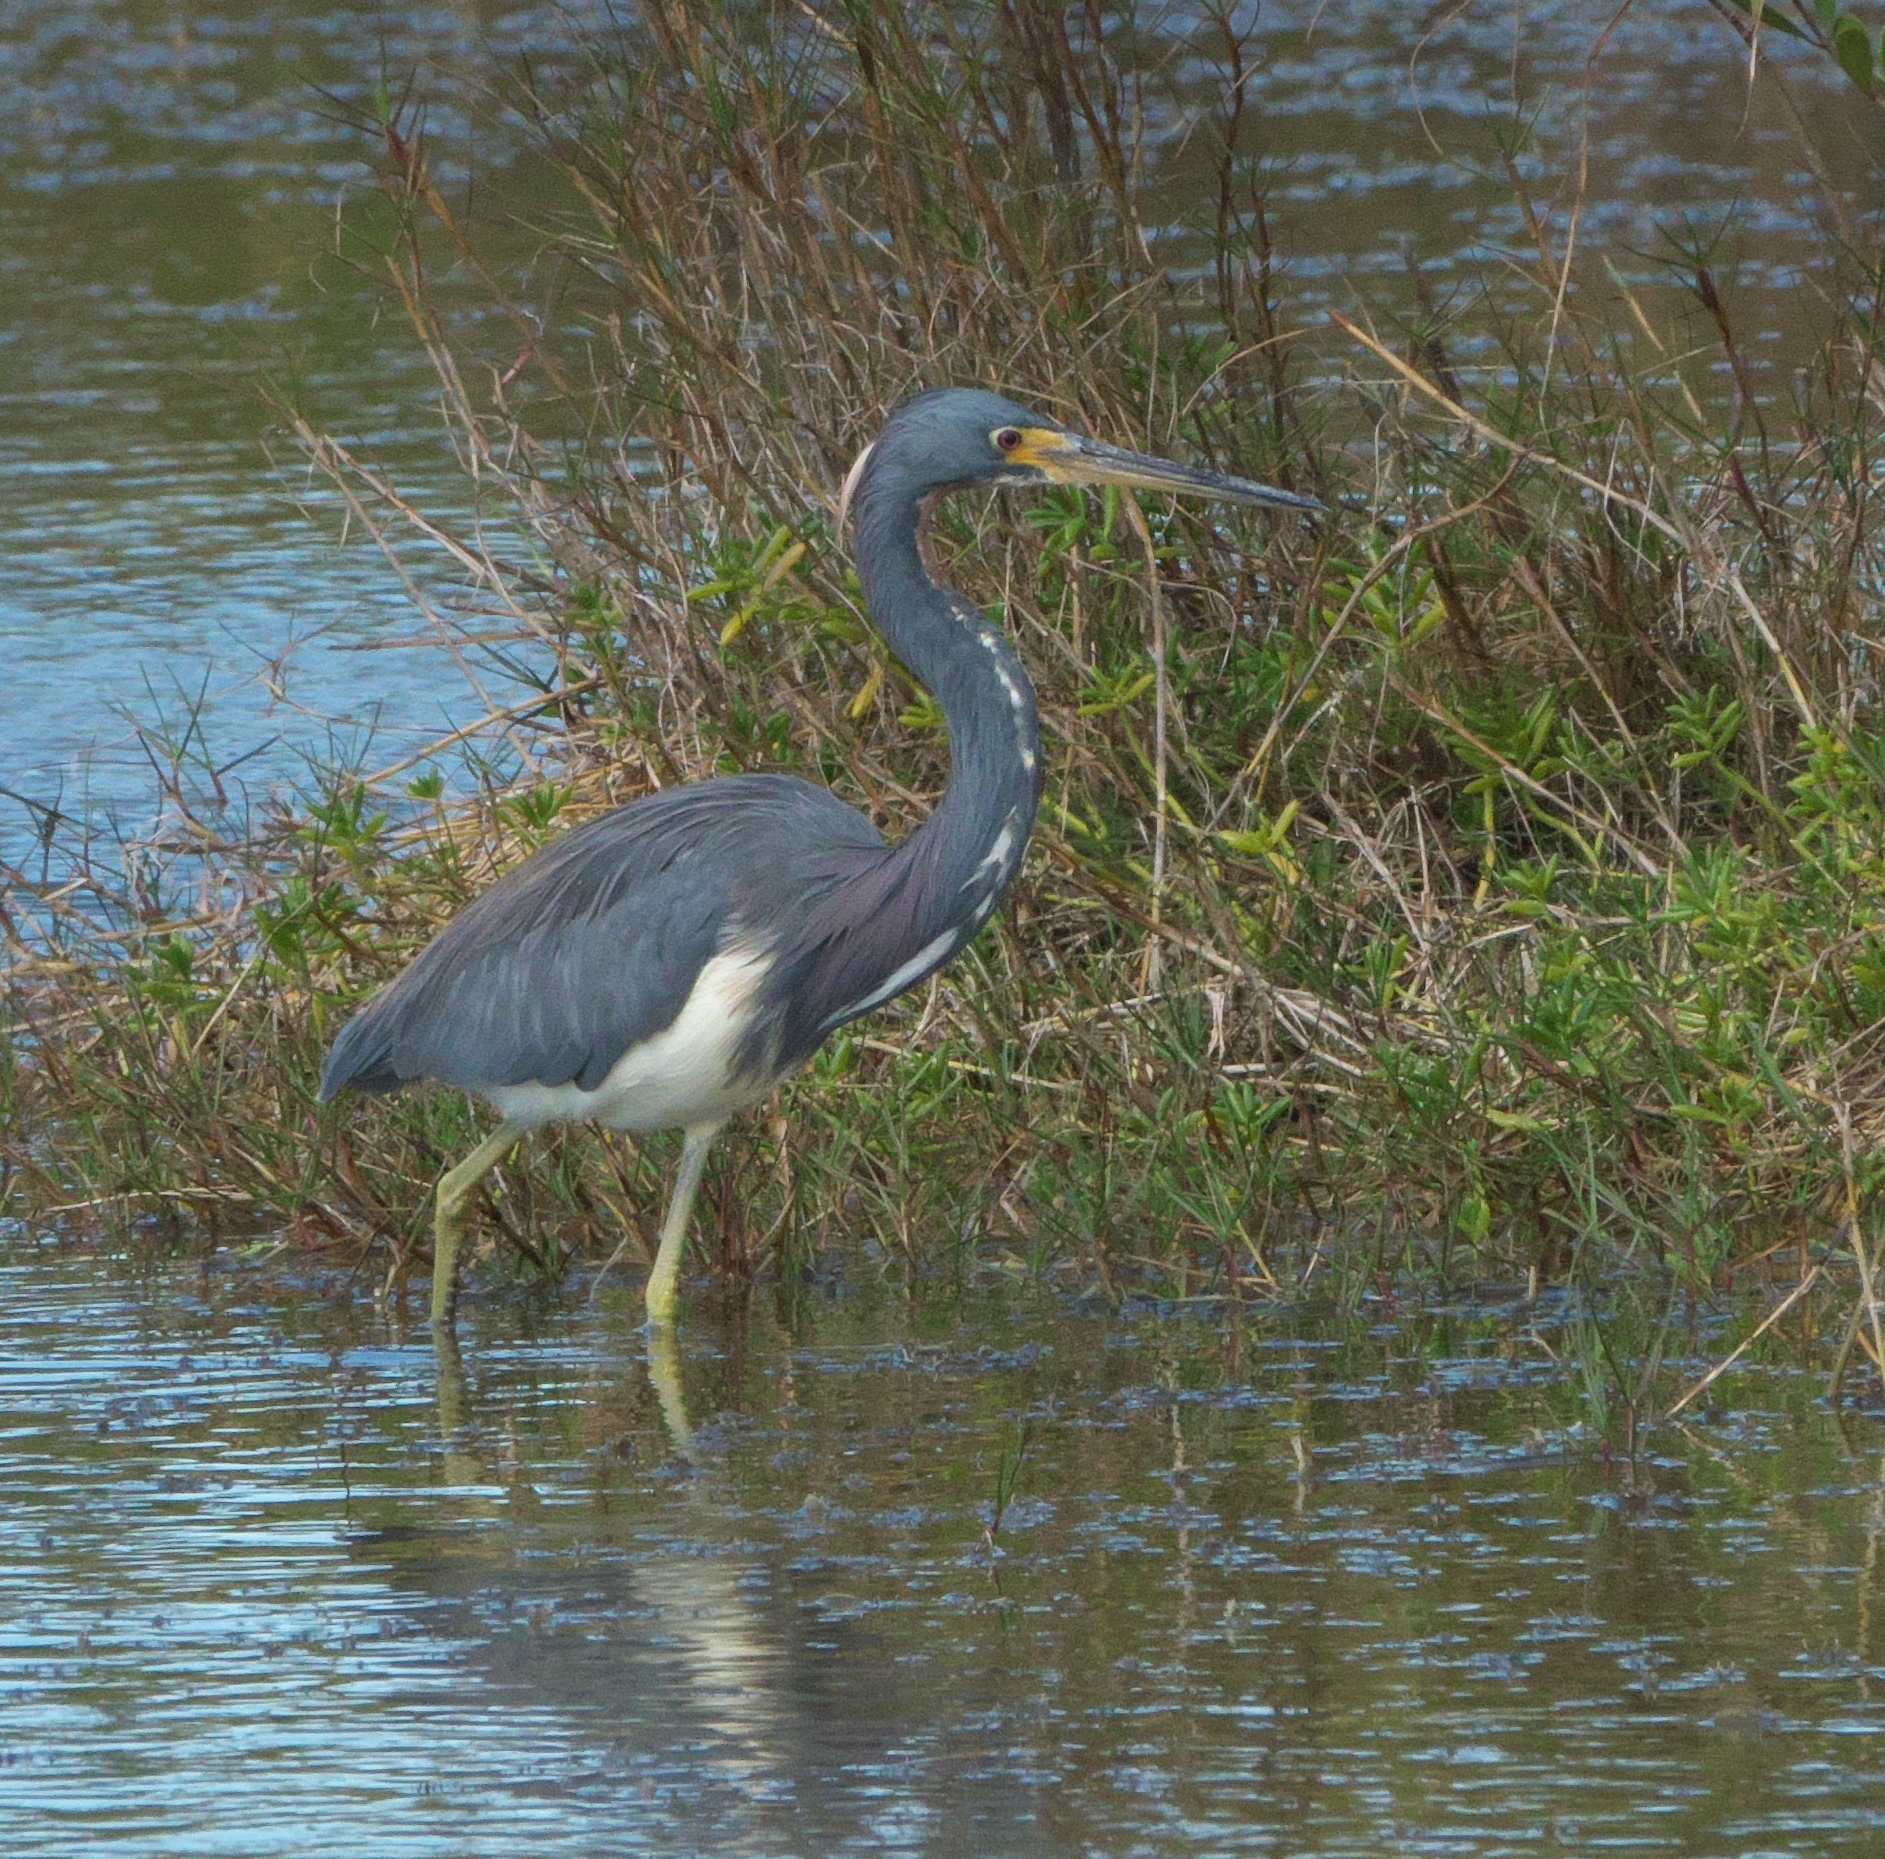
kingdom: Animalia
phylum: Chordata
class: Aves
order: Pelecaniformes
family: Ardeidae
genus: Egretta
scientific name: Egretta tricolor
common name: Tricolored heron
